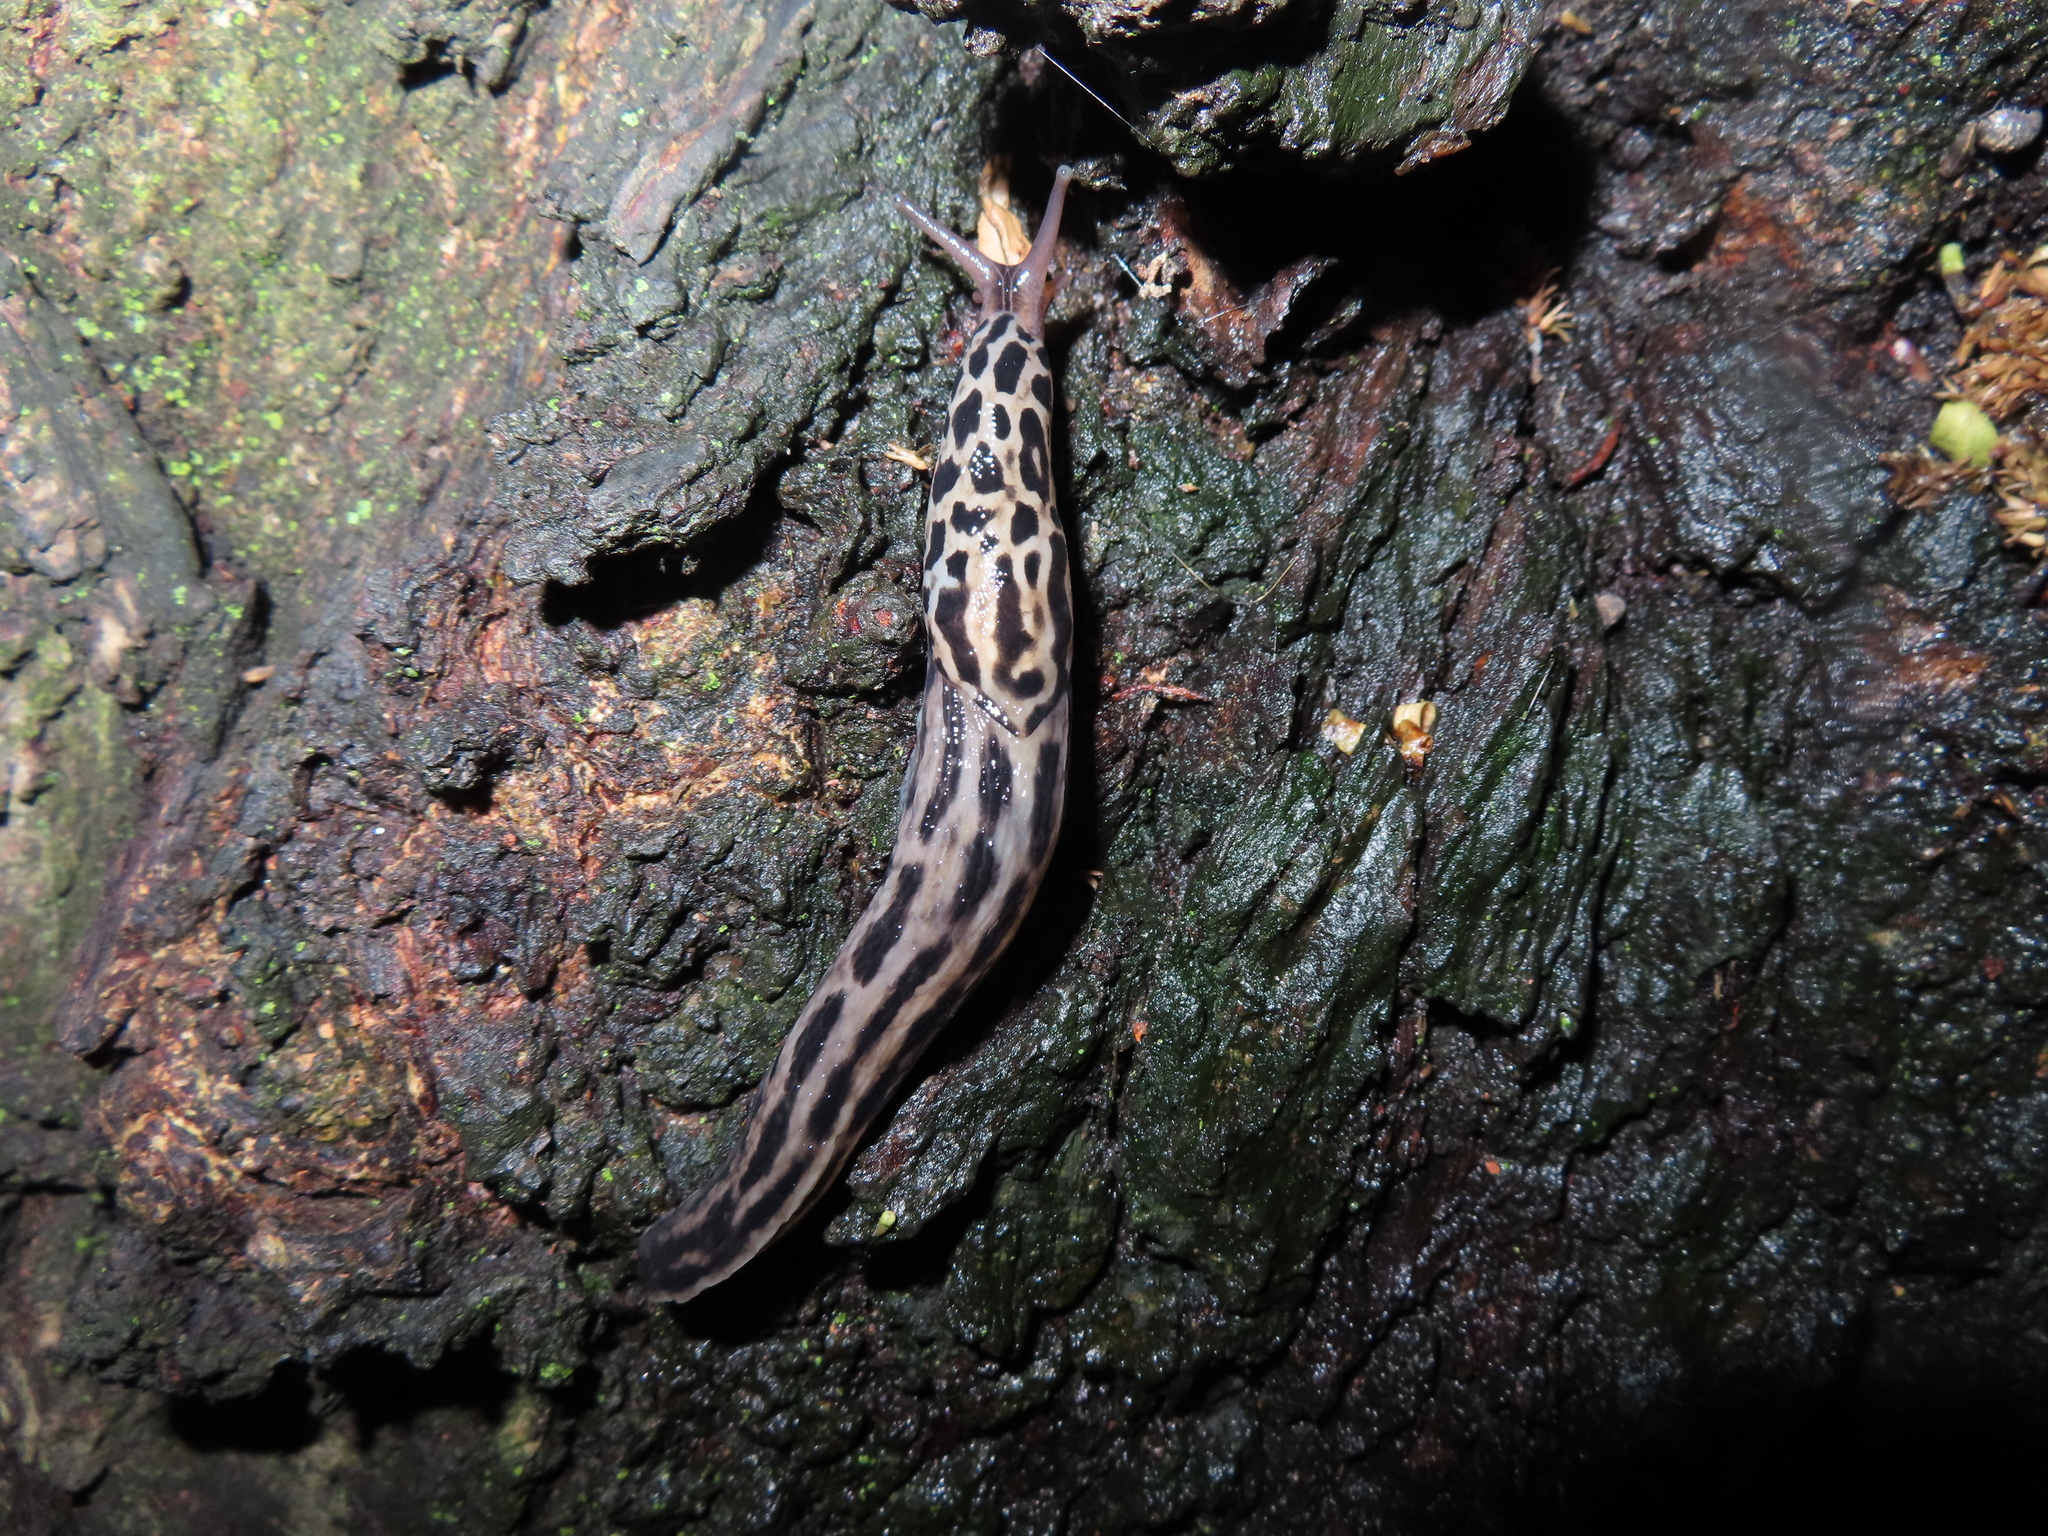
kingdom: Animalia
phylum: Mollusca
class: Gastropoda
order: Stylommatophora
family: Limacidae
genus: Limax
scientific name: Limax maximus
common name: Great grey slug
